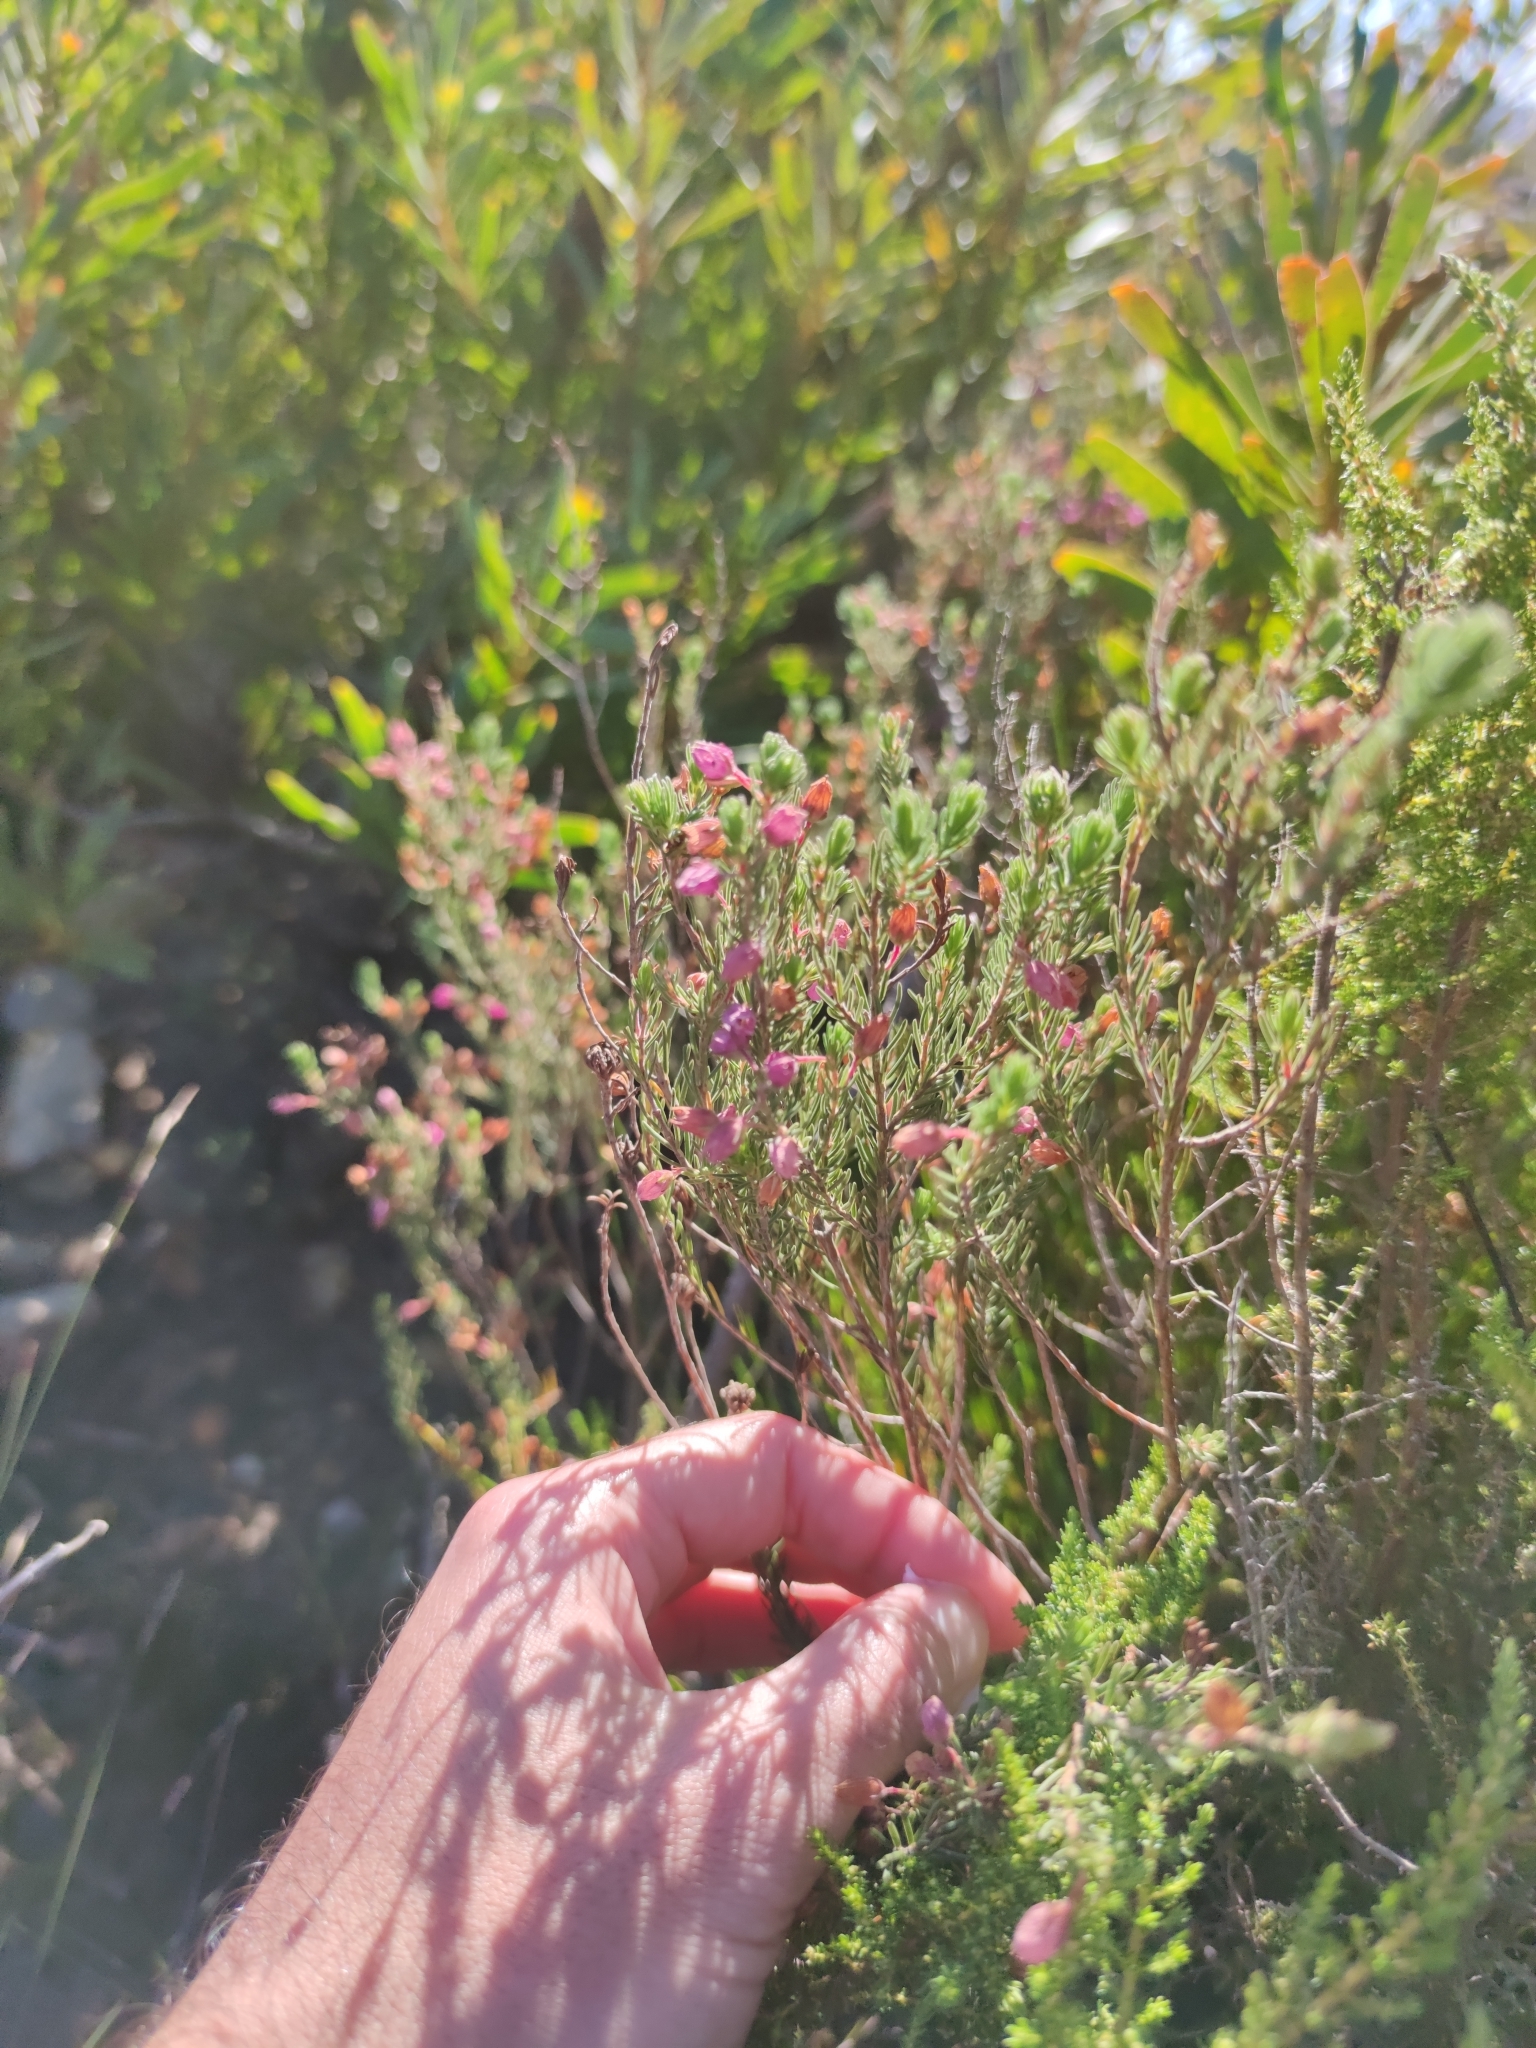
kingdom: Plantae
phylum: Tracheophyta
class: Magnoliopsida
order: Ericales
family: Ericaceae
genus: Erica
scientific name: Erica viscaria
